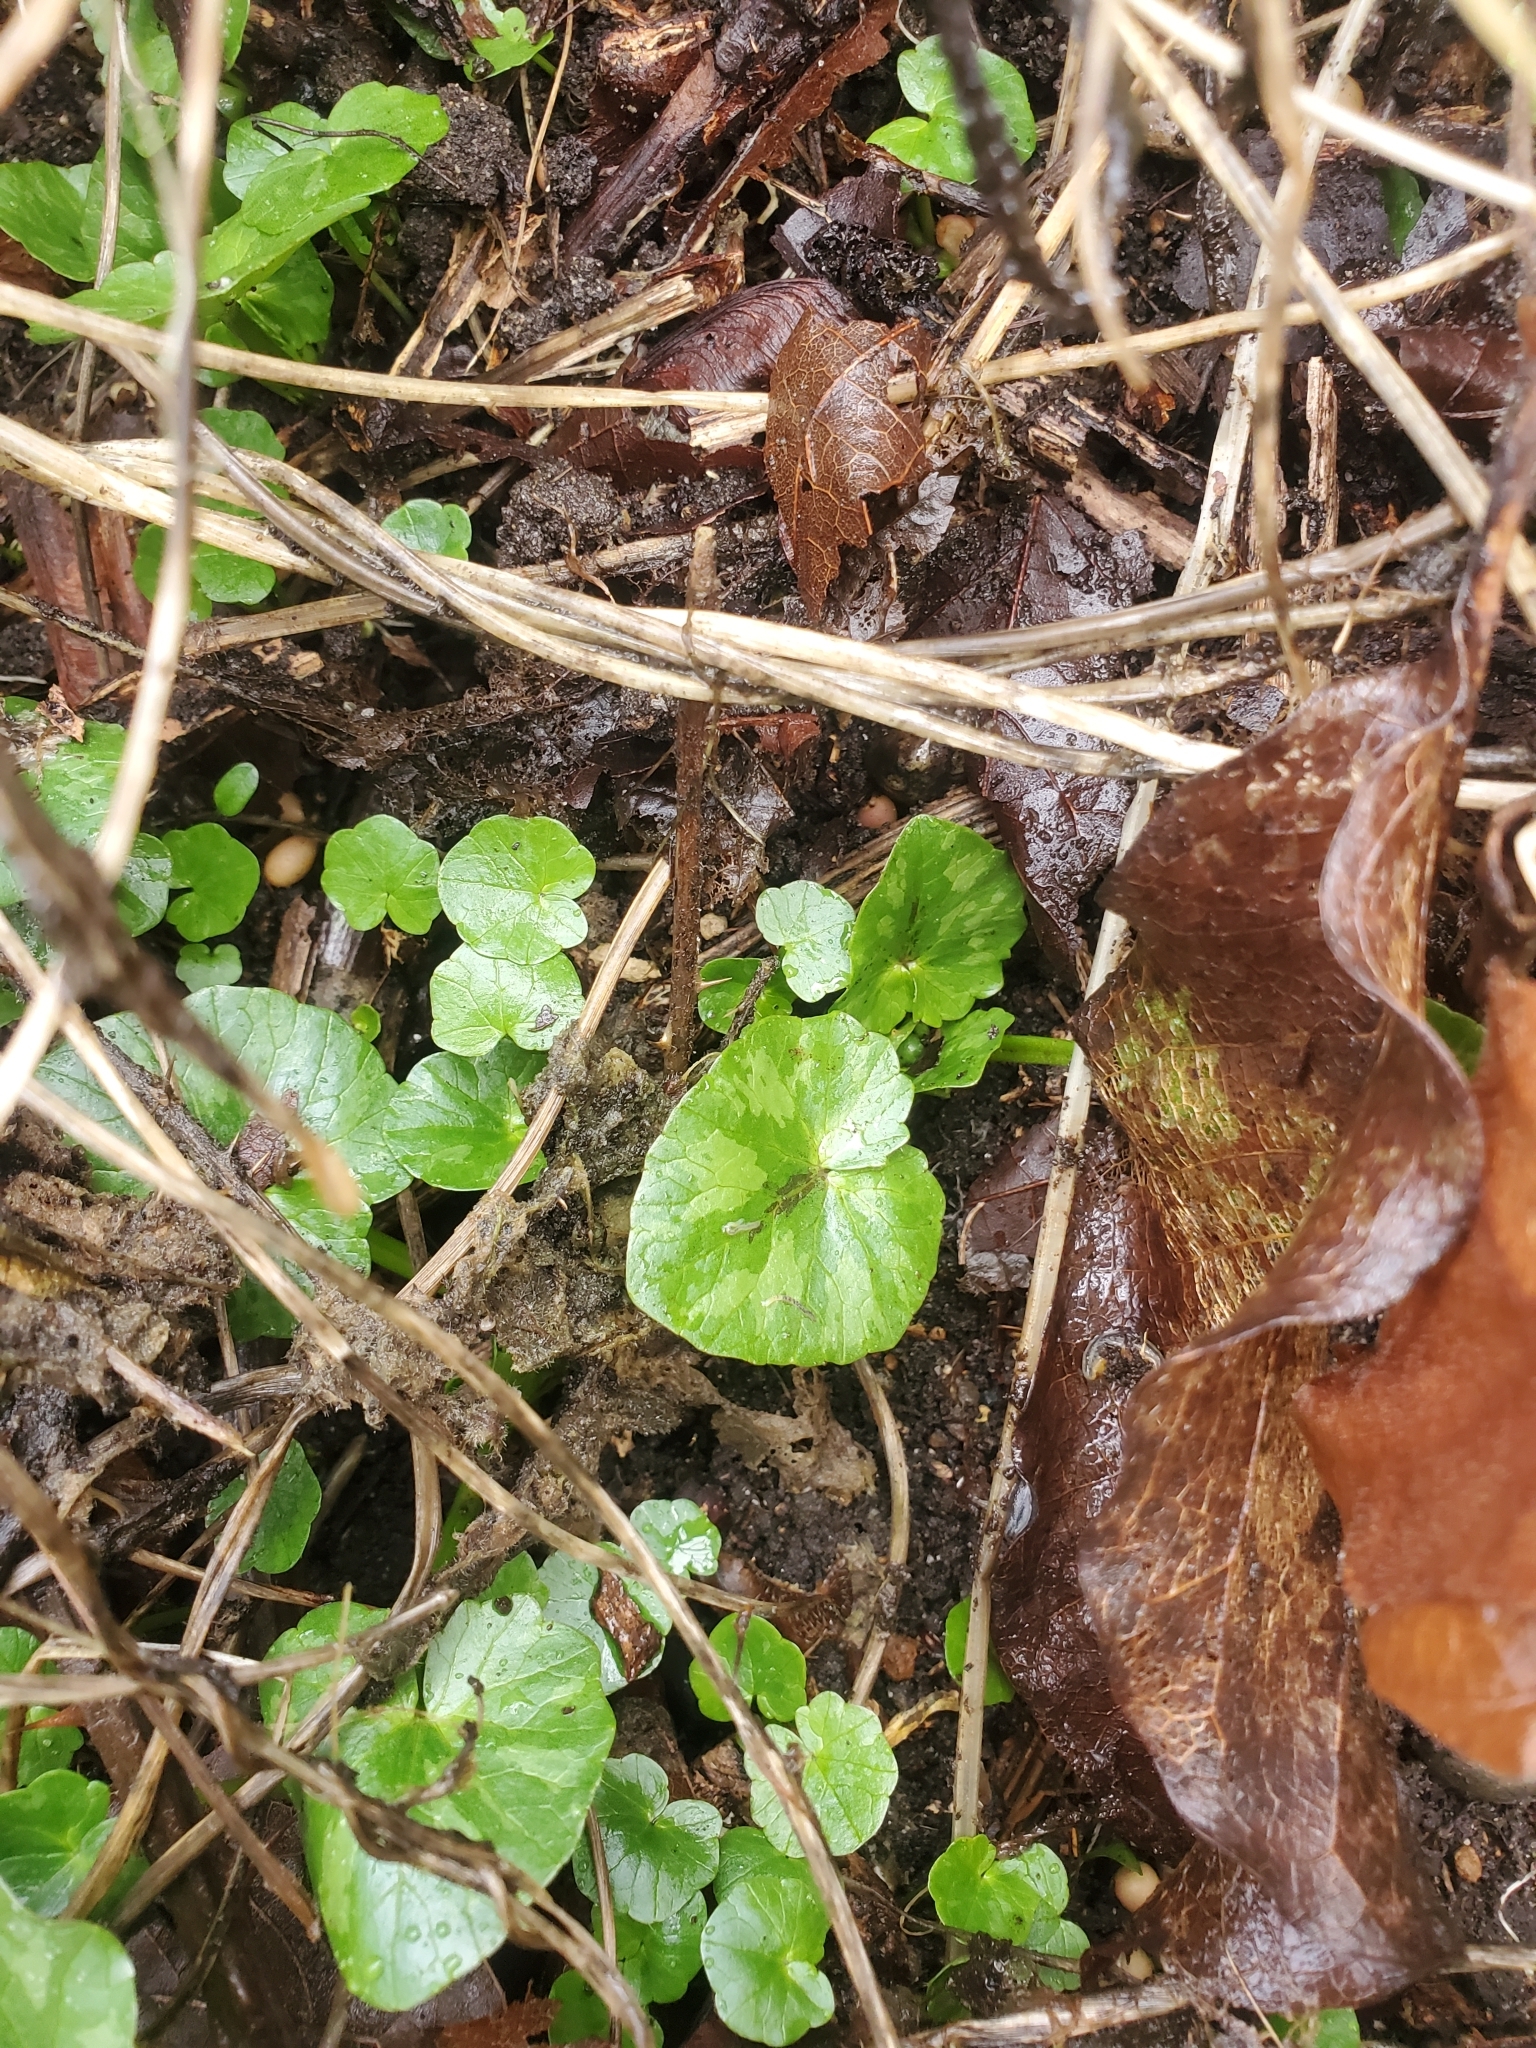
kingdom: Plantae
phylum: Tracheophyta
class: Magnoliopsida
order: Ranunculales
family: Ranunculaceae
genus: Ficaria
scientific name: Ficaria verna
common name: Lesser celandine
